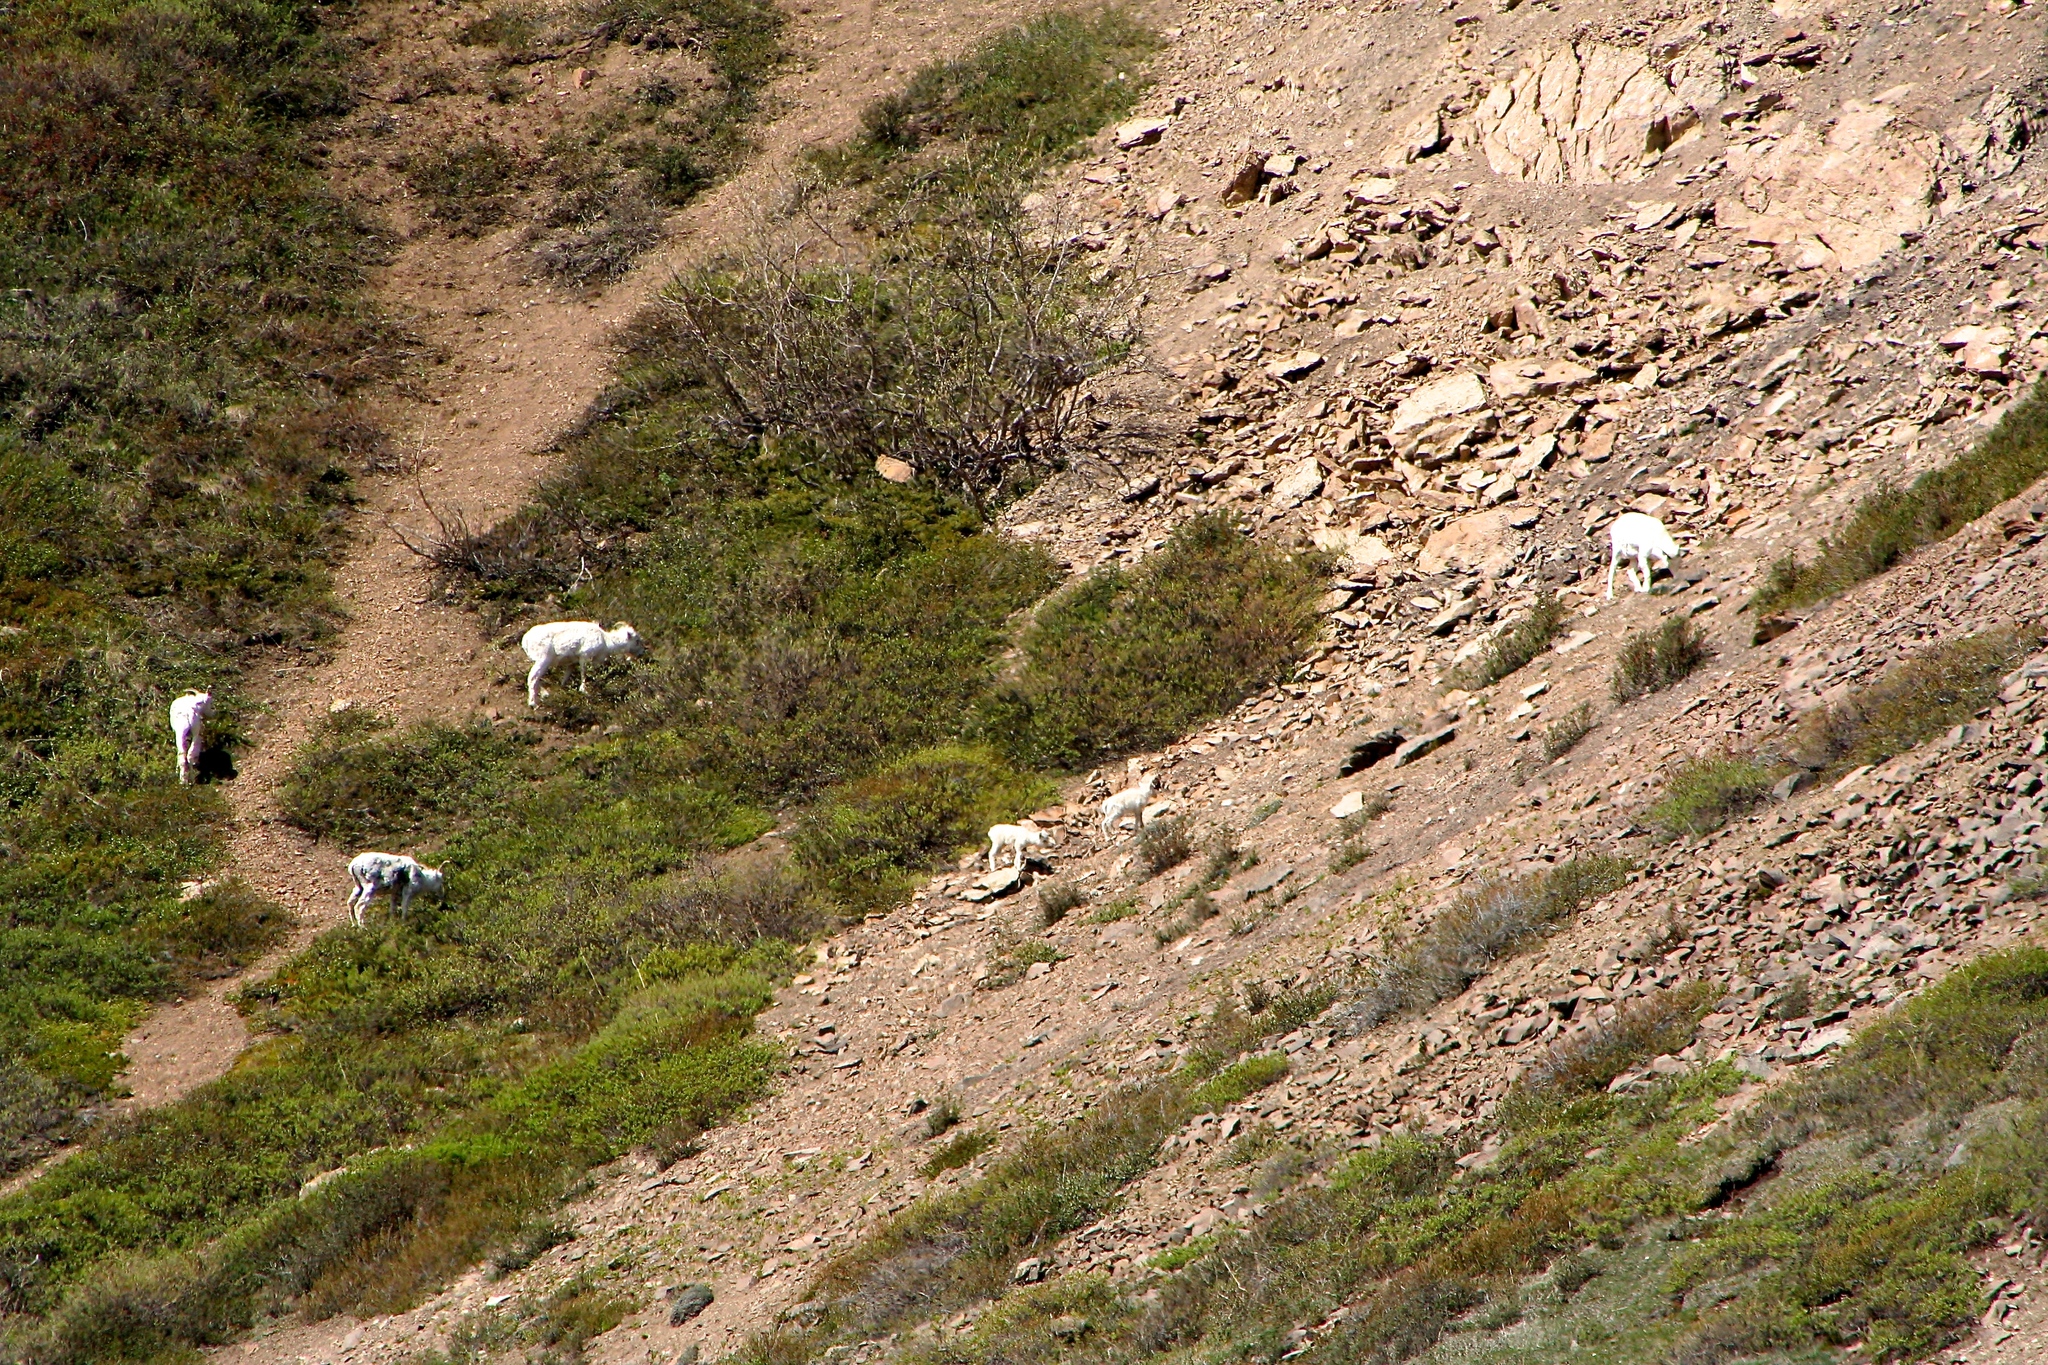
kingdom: Animalia
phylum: Chordata
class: Mammalia
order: Artiodactyla
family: Bovidae
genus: Ovis
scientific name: Ovis dalli
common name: Dall's sheep
